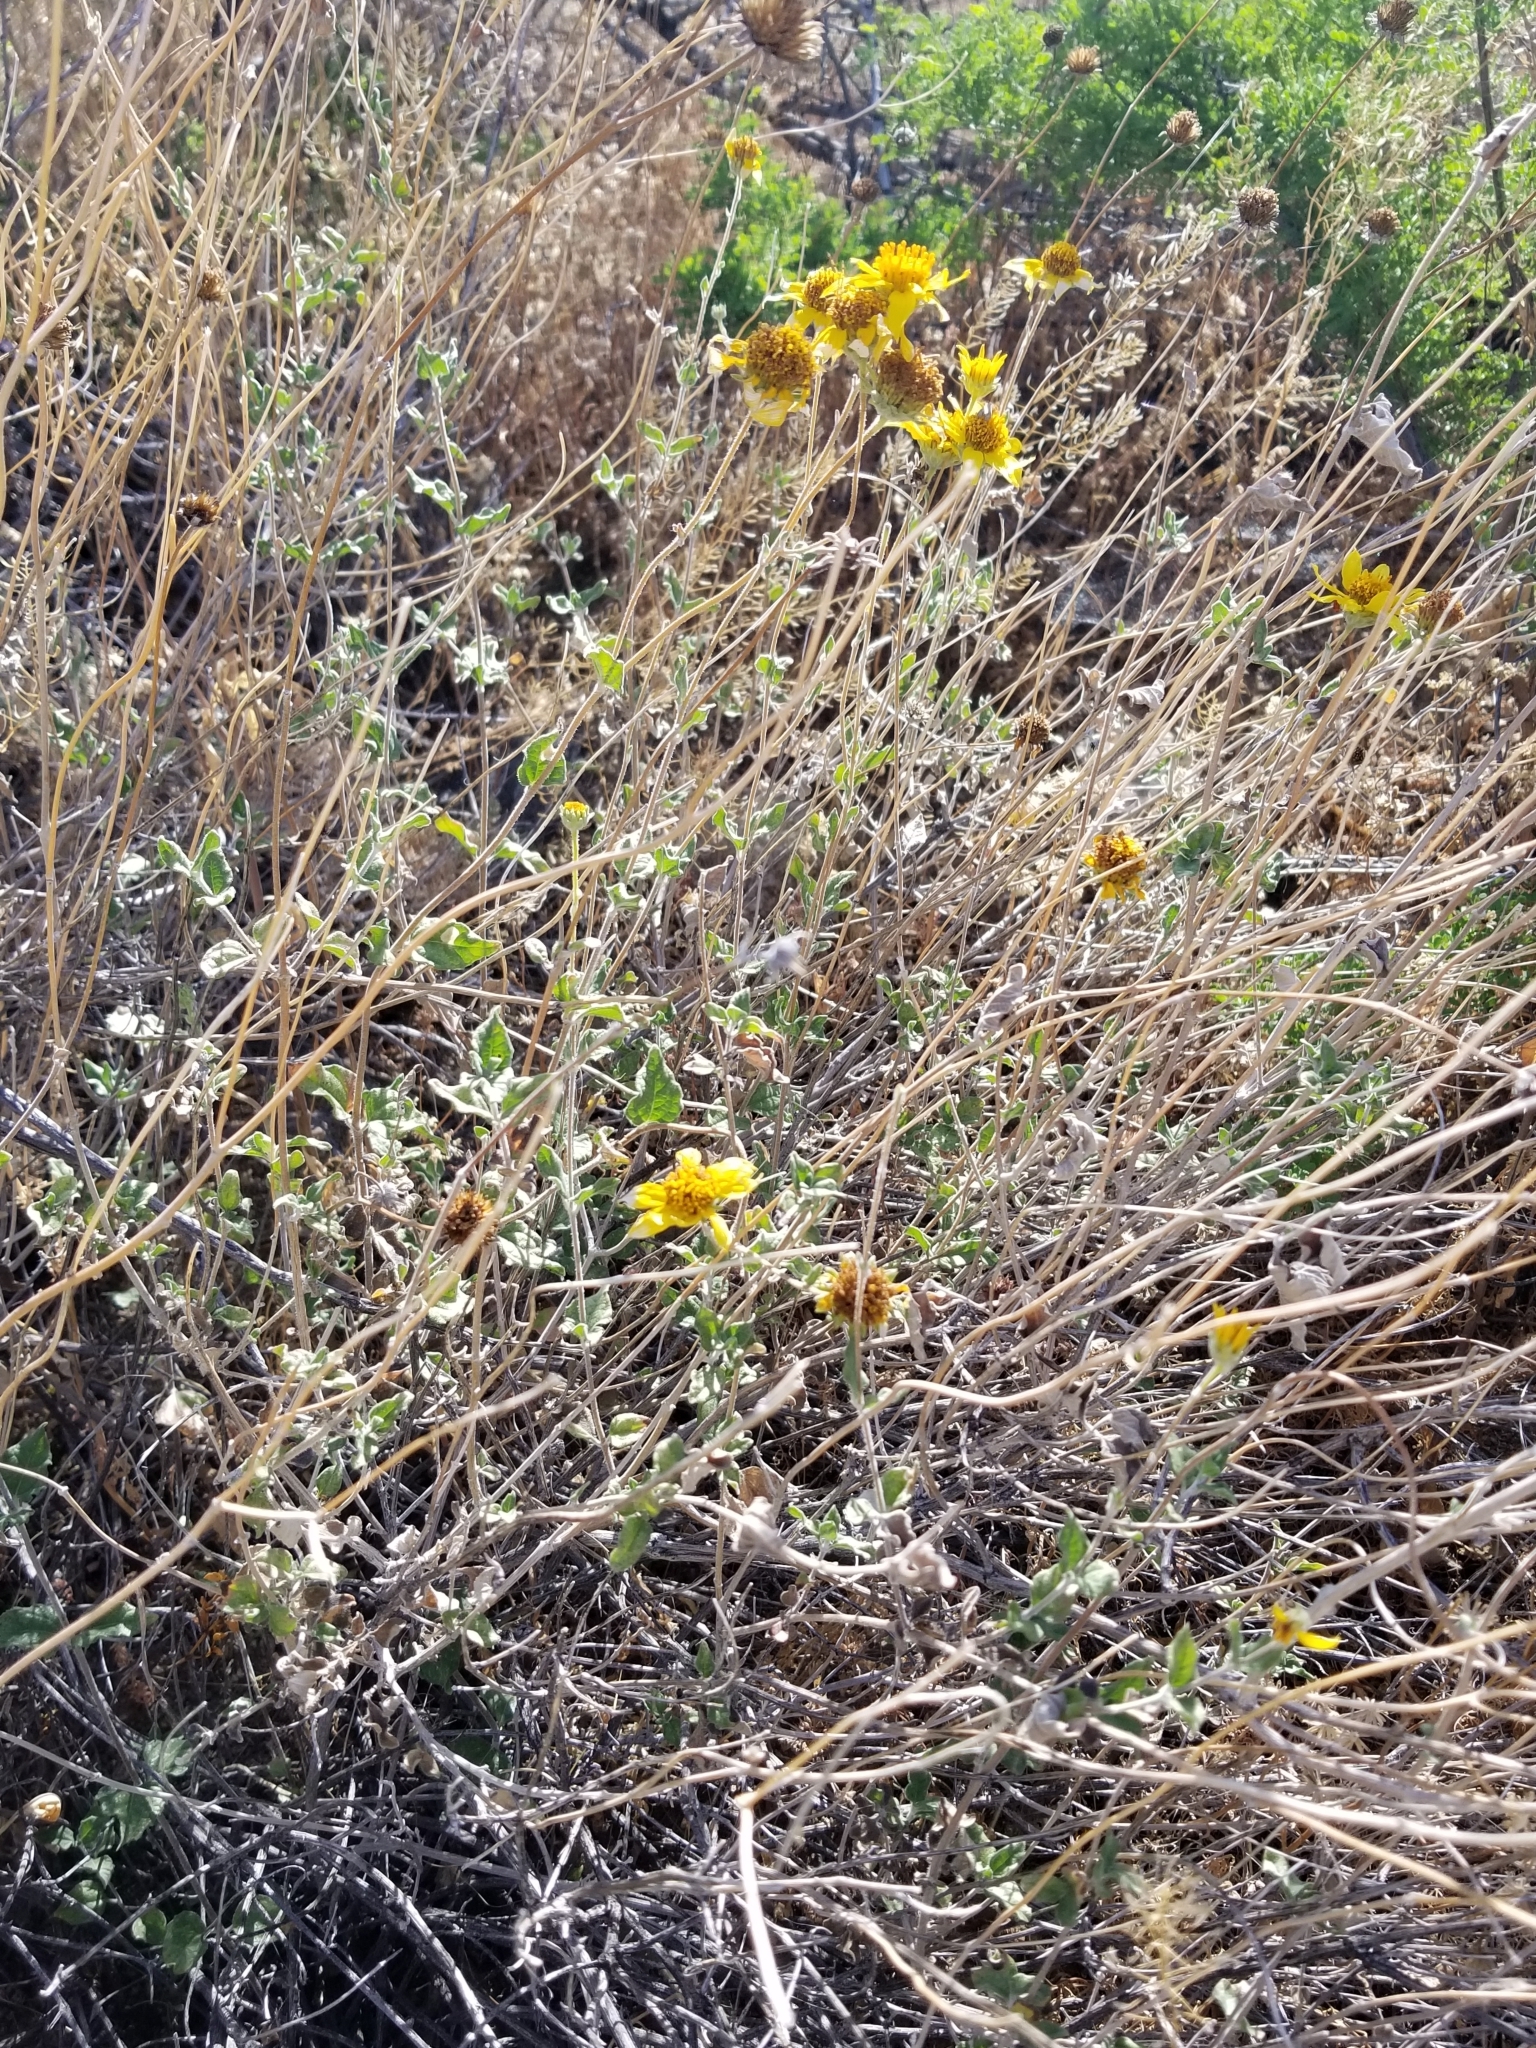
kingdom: Plantae
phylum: Tracheophyta
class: Magnoliopsida
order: Asterales
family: Asteraceae
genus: Bahiopsis
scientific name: Bahiopsis parishii
